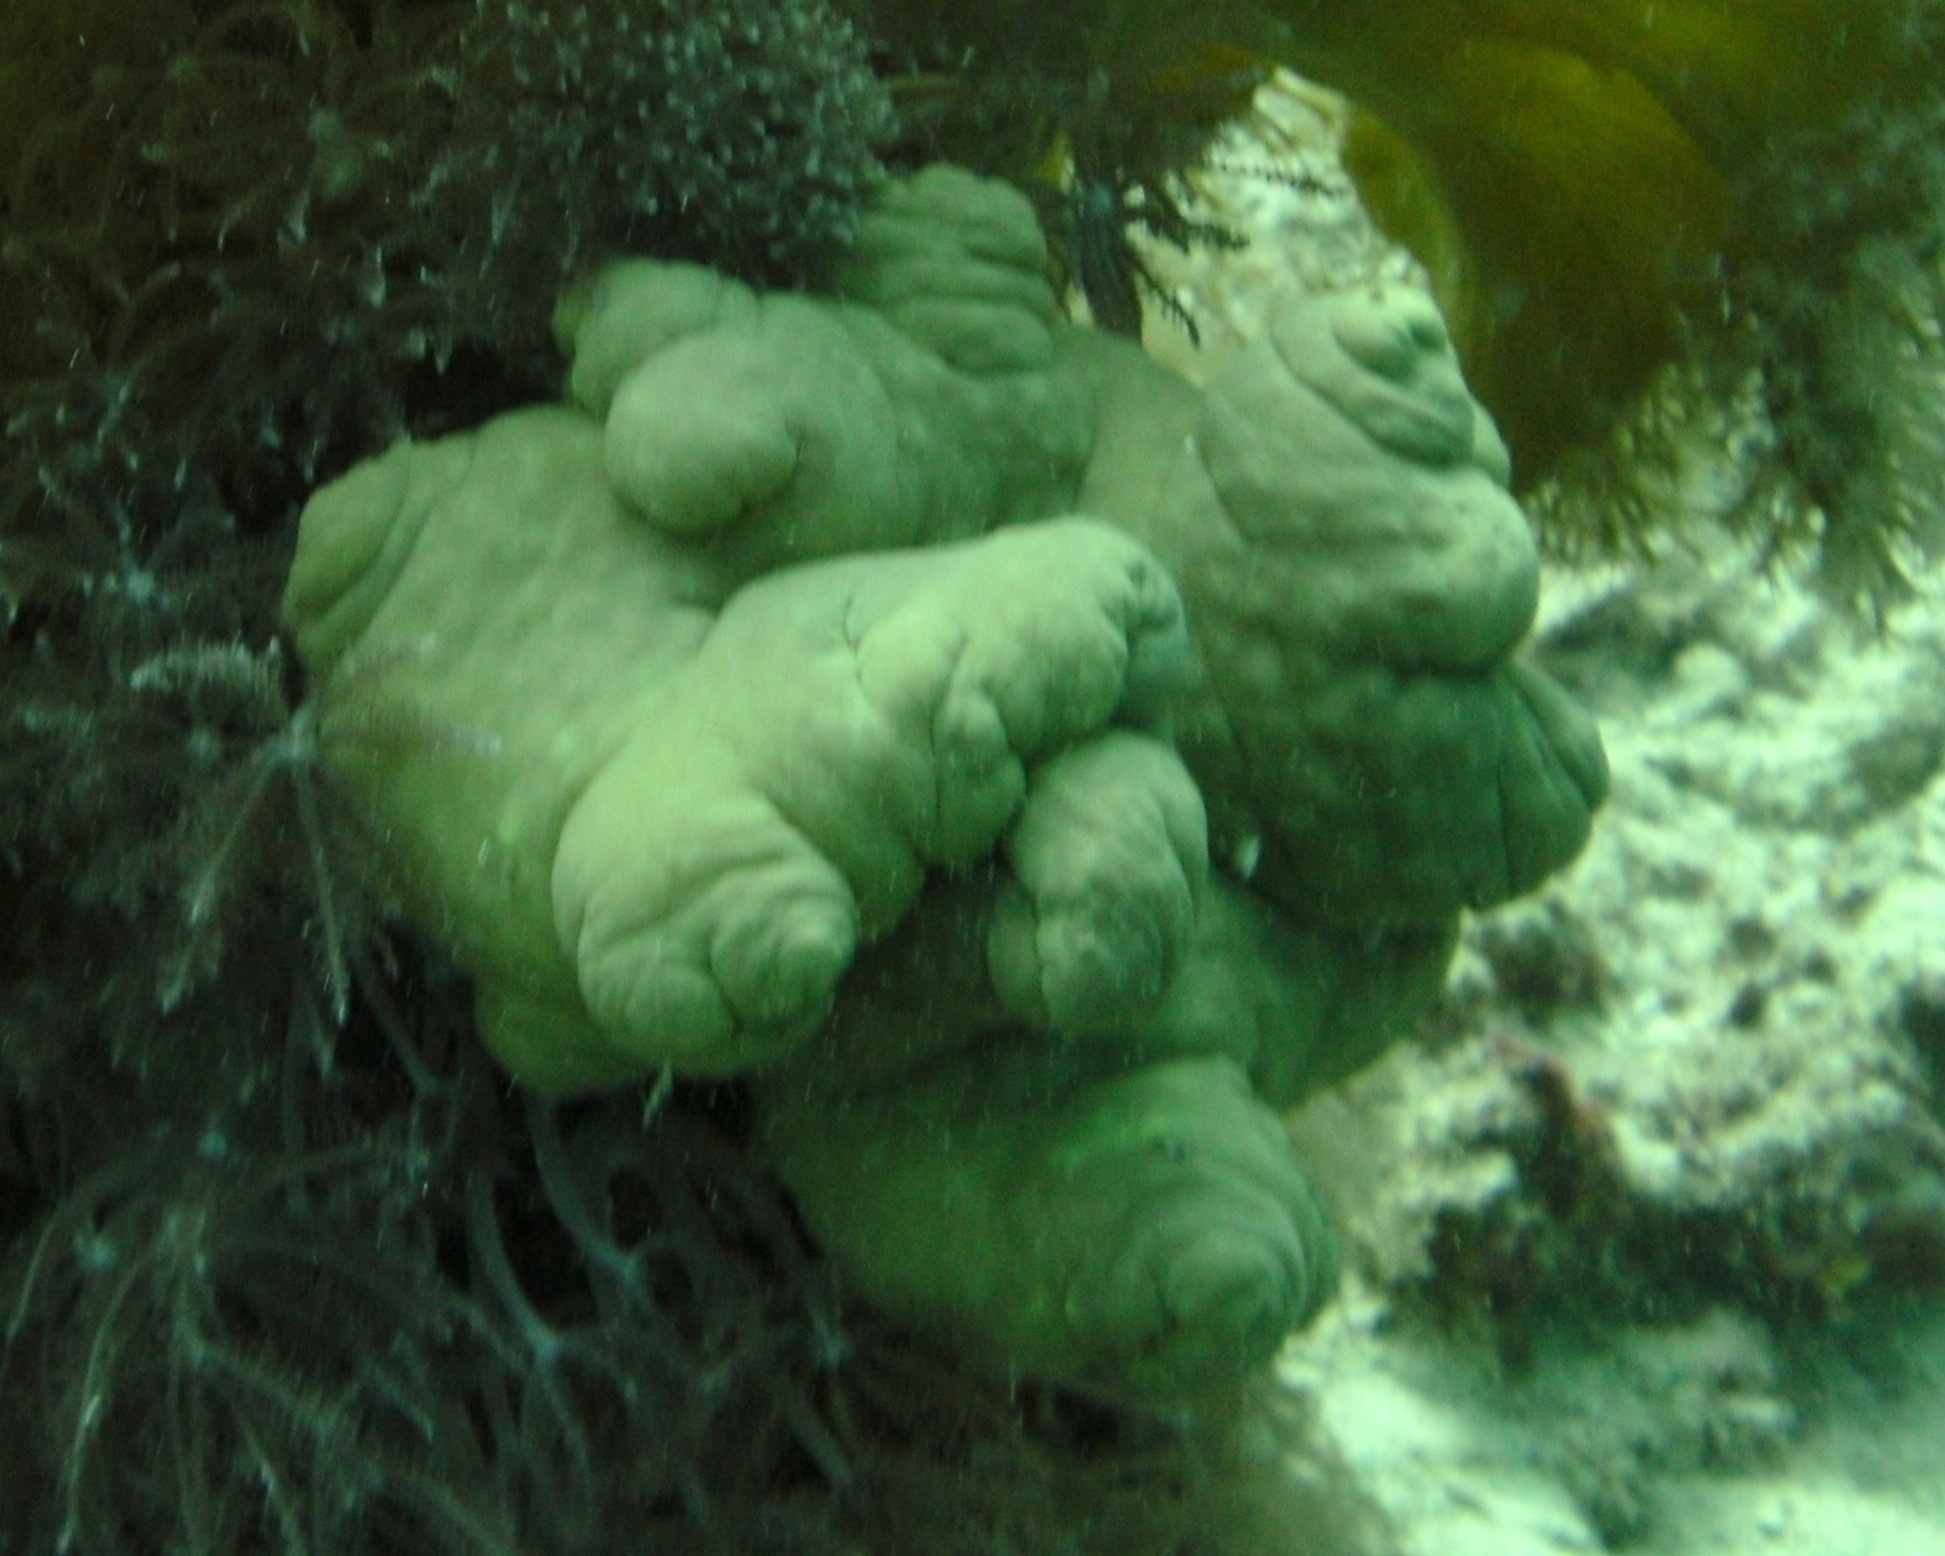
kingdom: Animalia
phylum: Cnidaria
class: Anthozoa
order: Malacalcyonacea
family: Sarcophytidae
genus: Sarcophyton
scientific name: Sarcophyton
